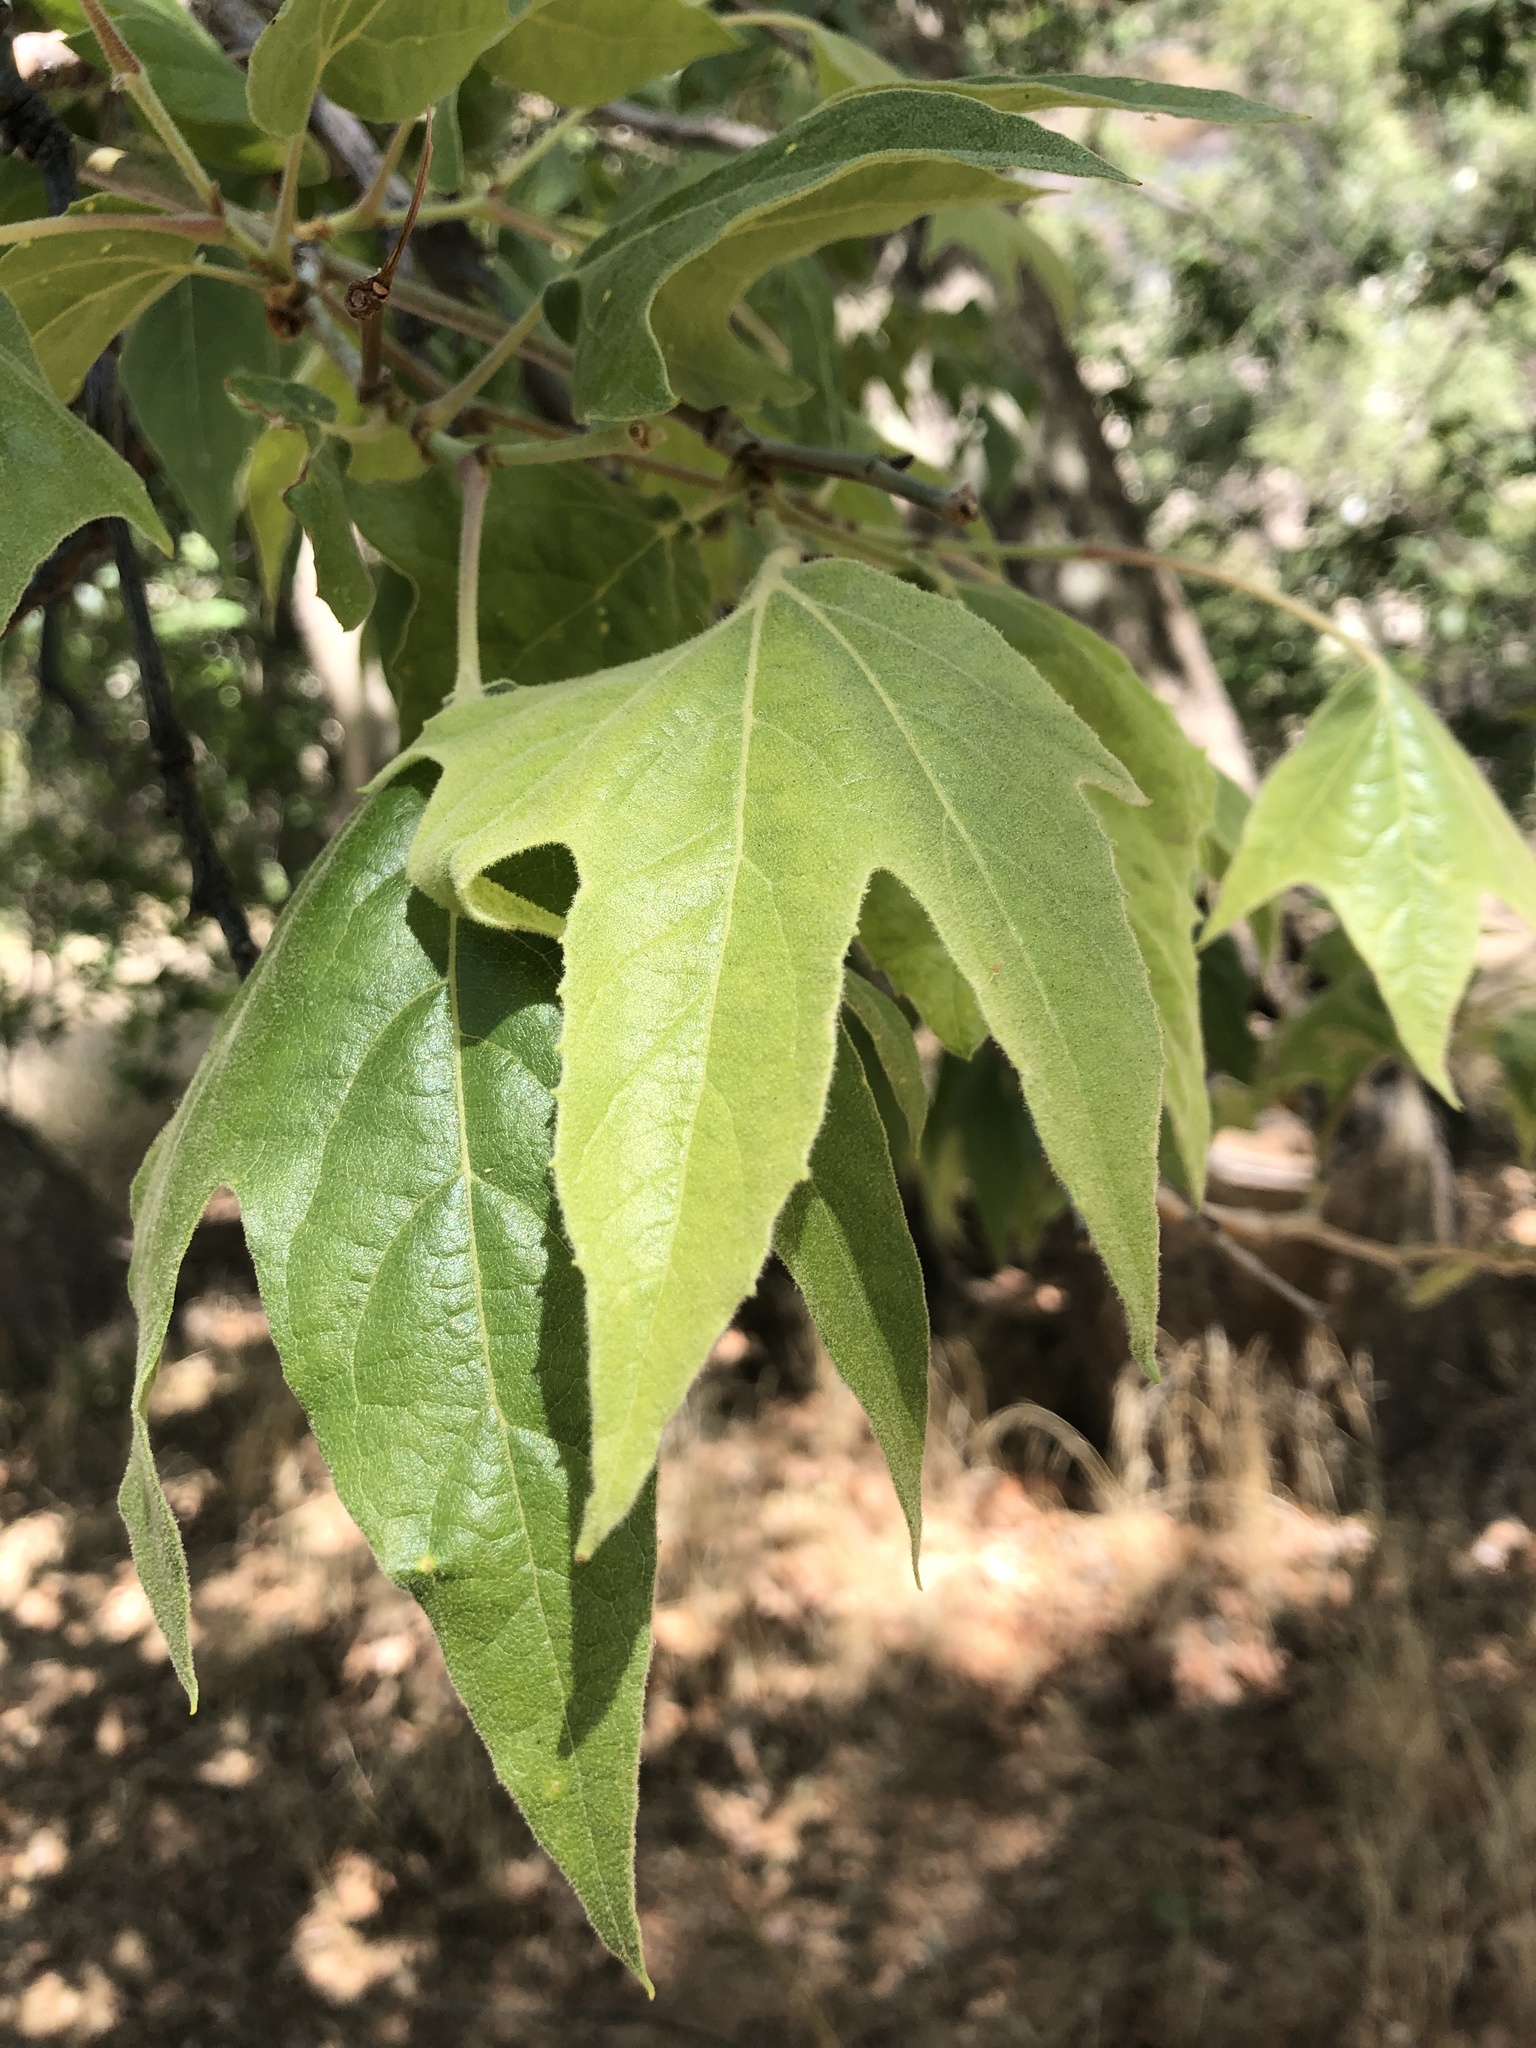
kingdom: Plantae
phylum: Tracheophyta
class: Magnoliopsida
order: Proteales
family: Platanaceae
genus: Platanus
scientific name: Platanus wrightii
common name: Arizona sycamore
